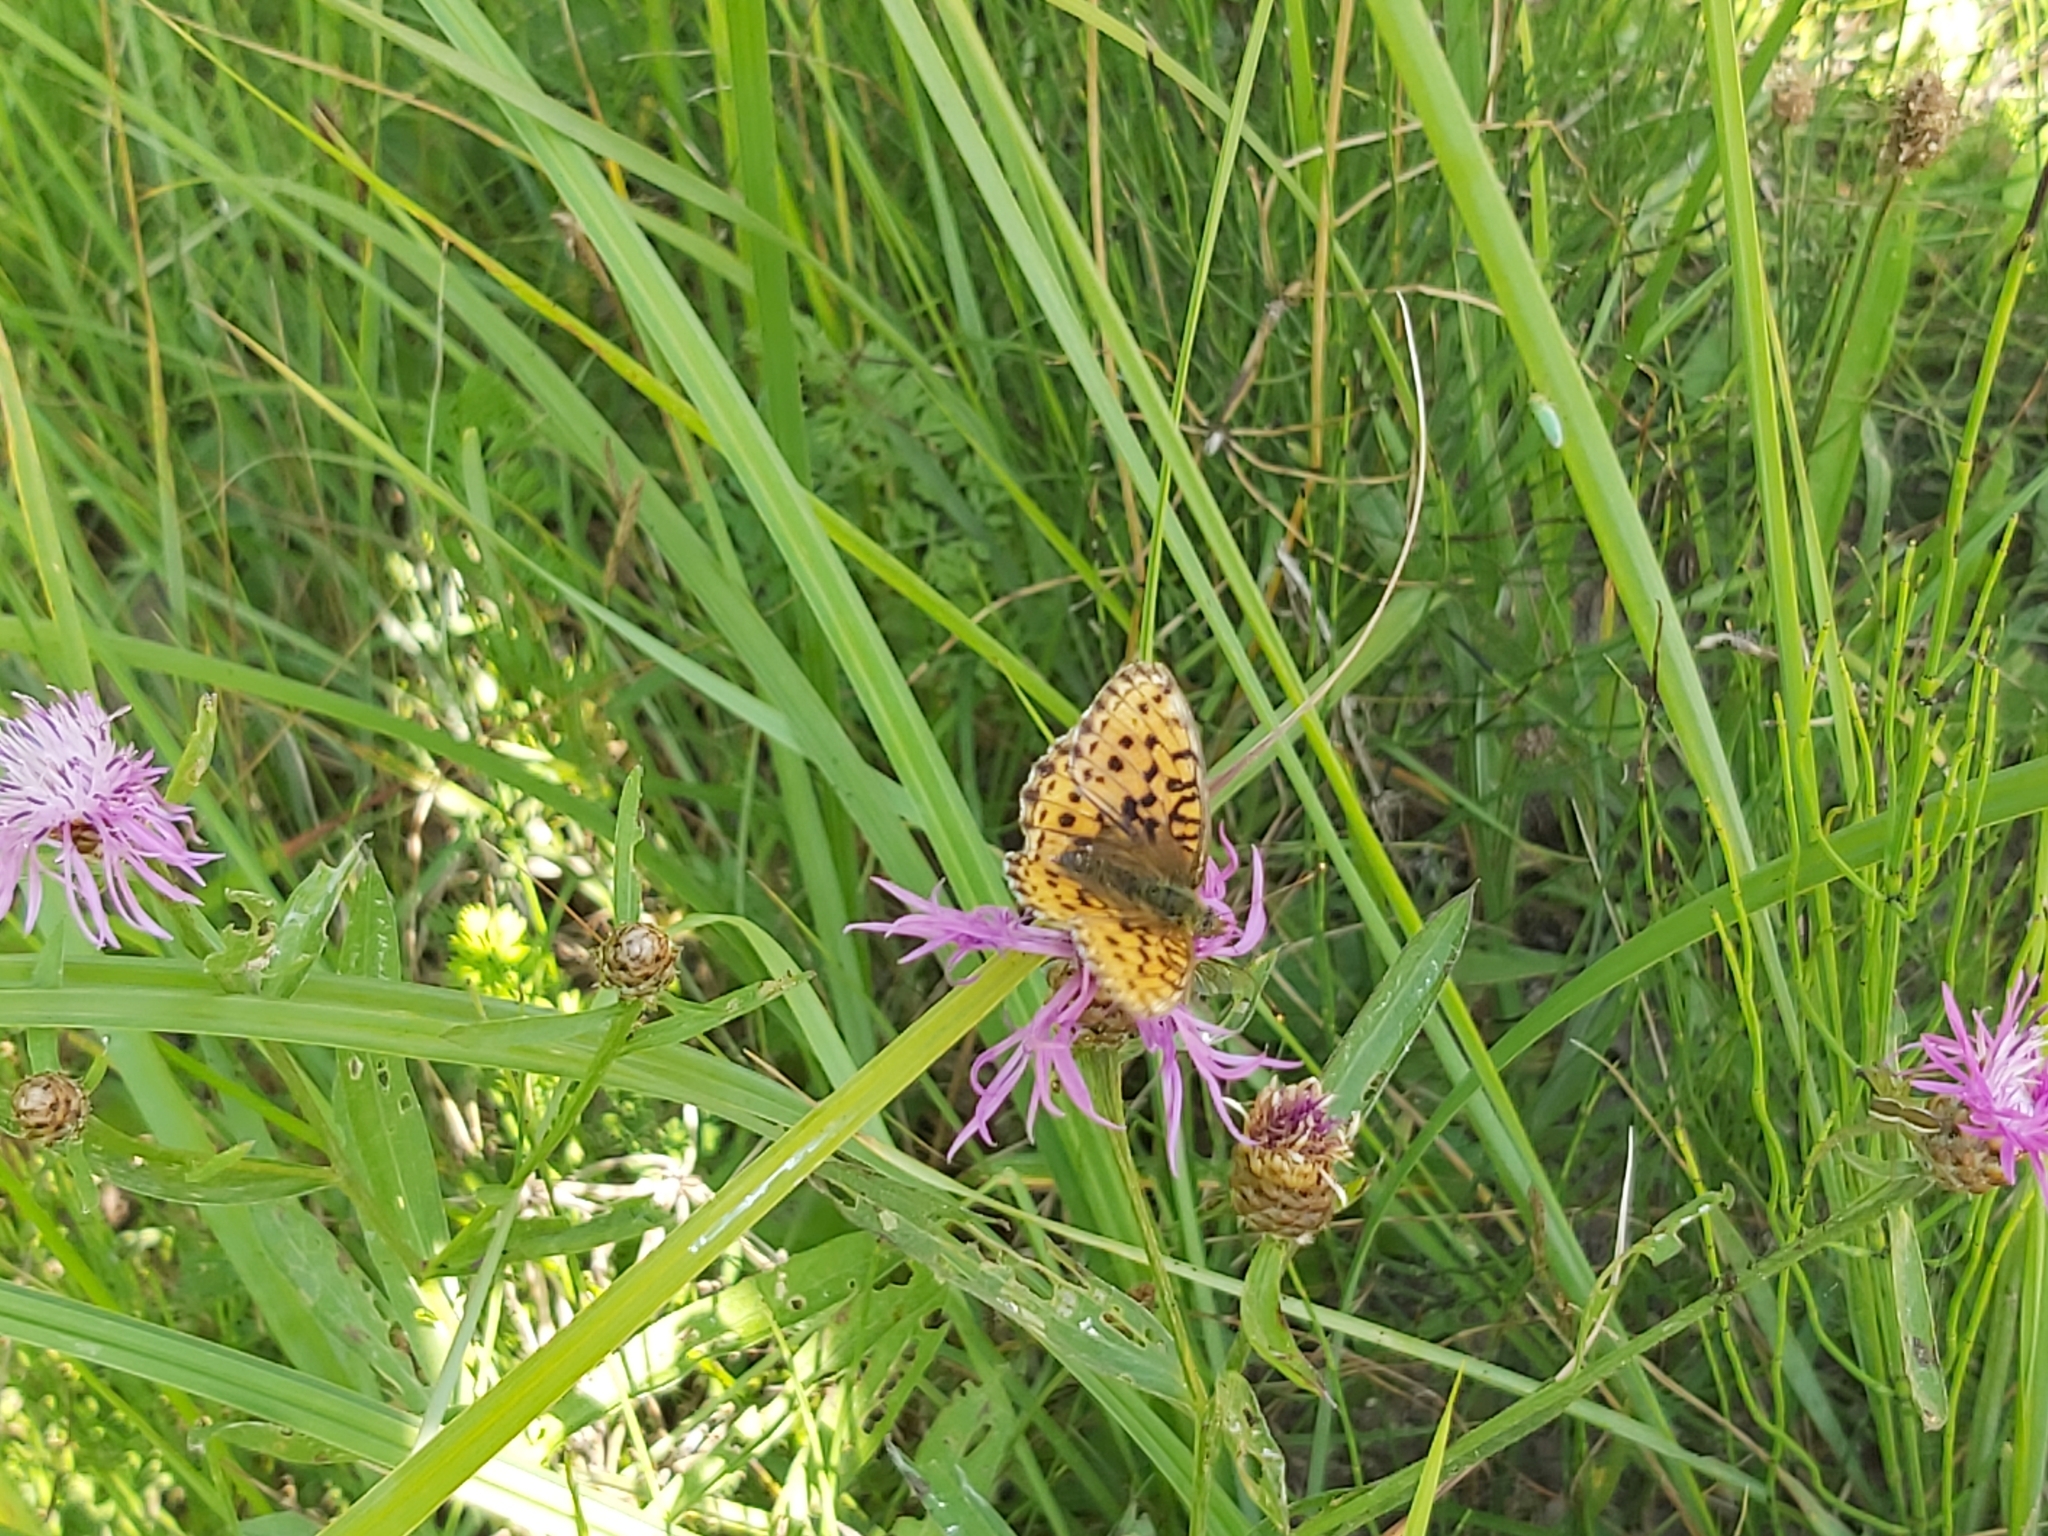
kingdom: Animalia
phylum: Arthropoda
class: Insecta
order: Lepidoptera
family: Nymphalidae
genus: Brenthis
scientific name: Brenthis ino
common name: Lesser marbled fritillary
